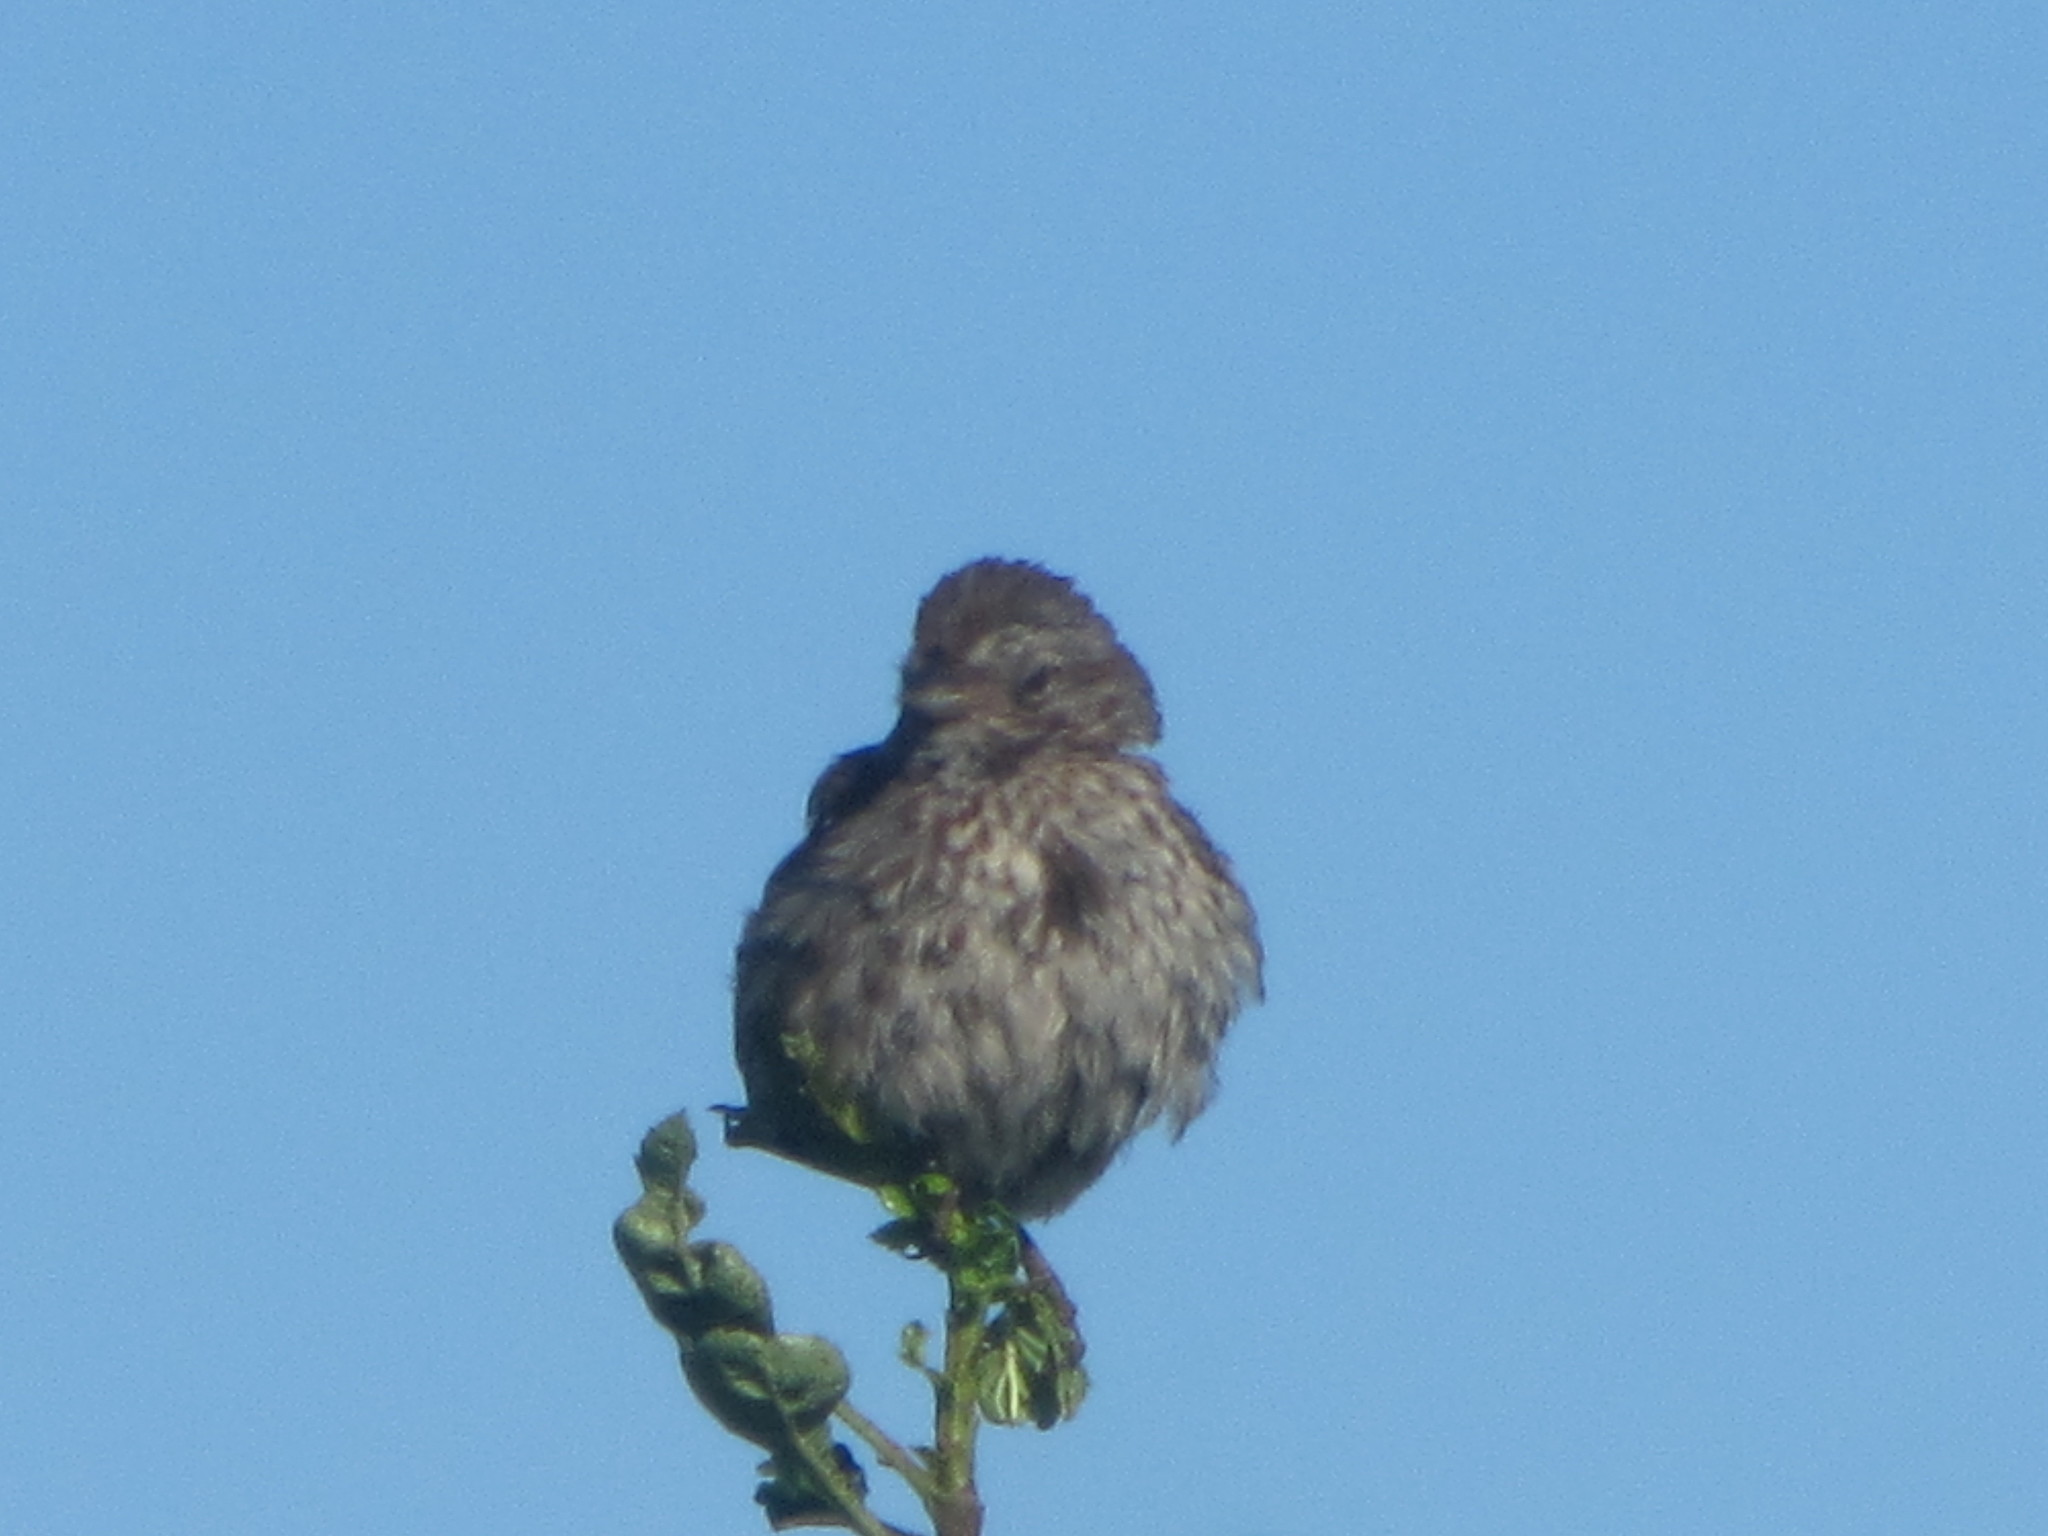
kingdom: Animalia
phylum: Chordata
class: Aves
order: Passeriformes
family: Passerellidae
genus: Melospiza
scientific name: Melospiza melodia
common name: Song sparrow
